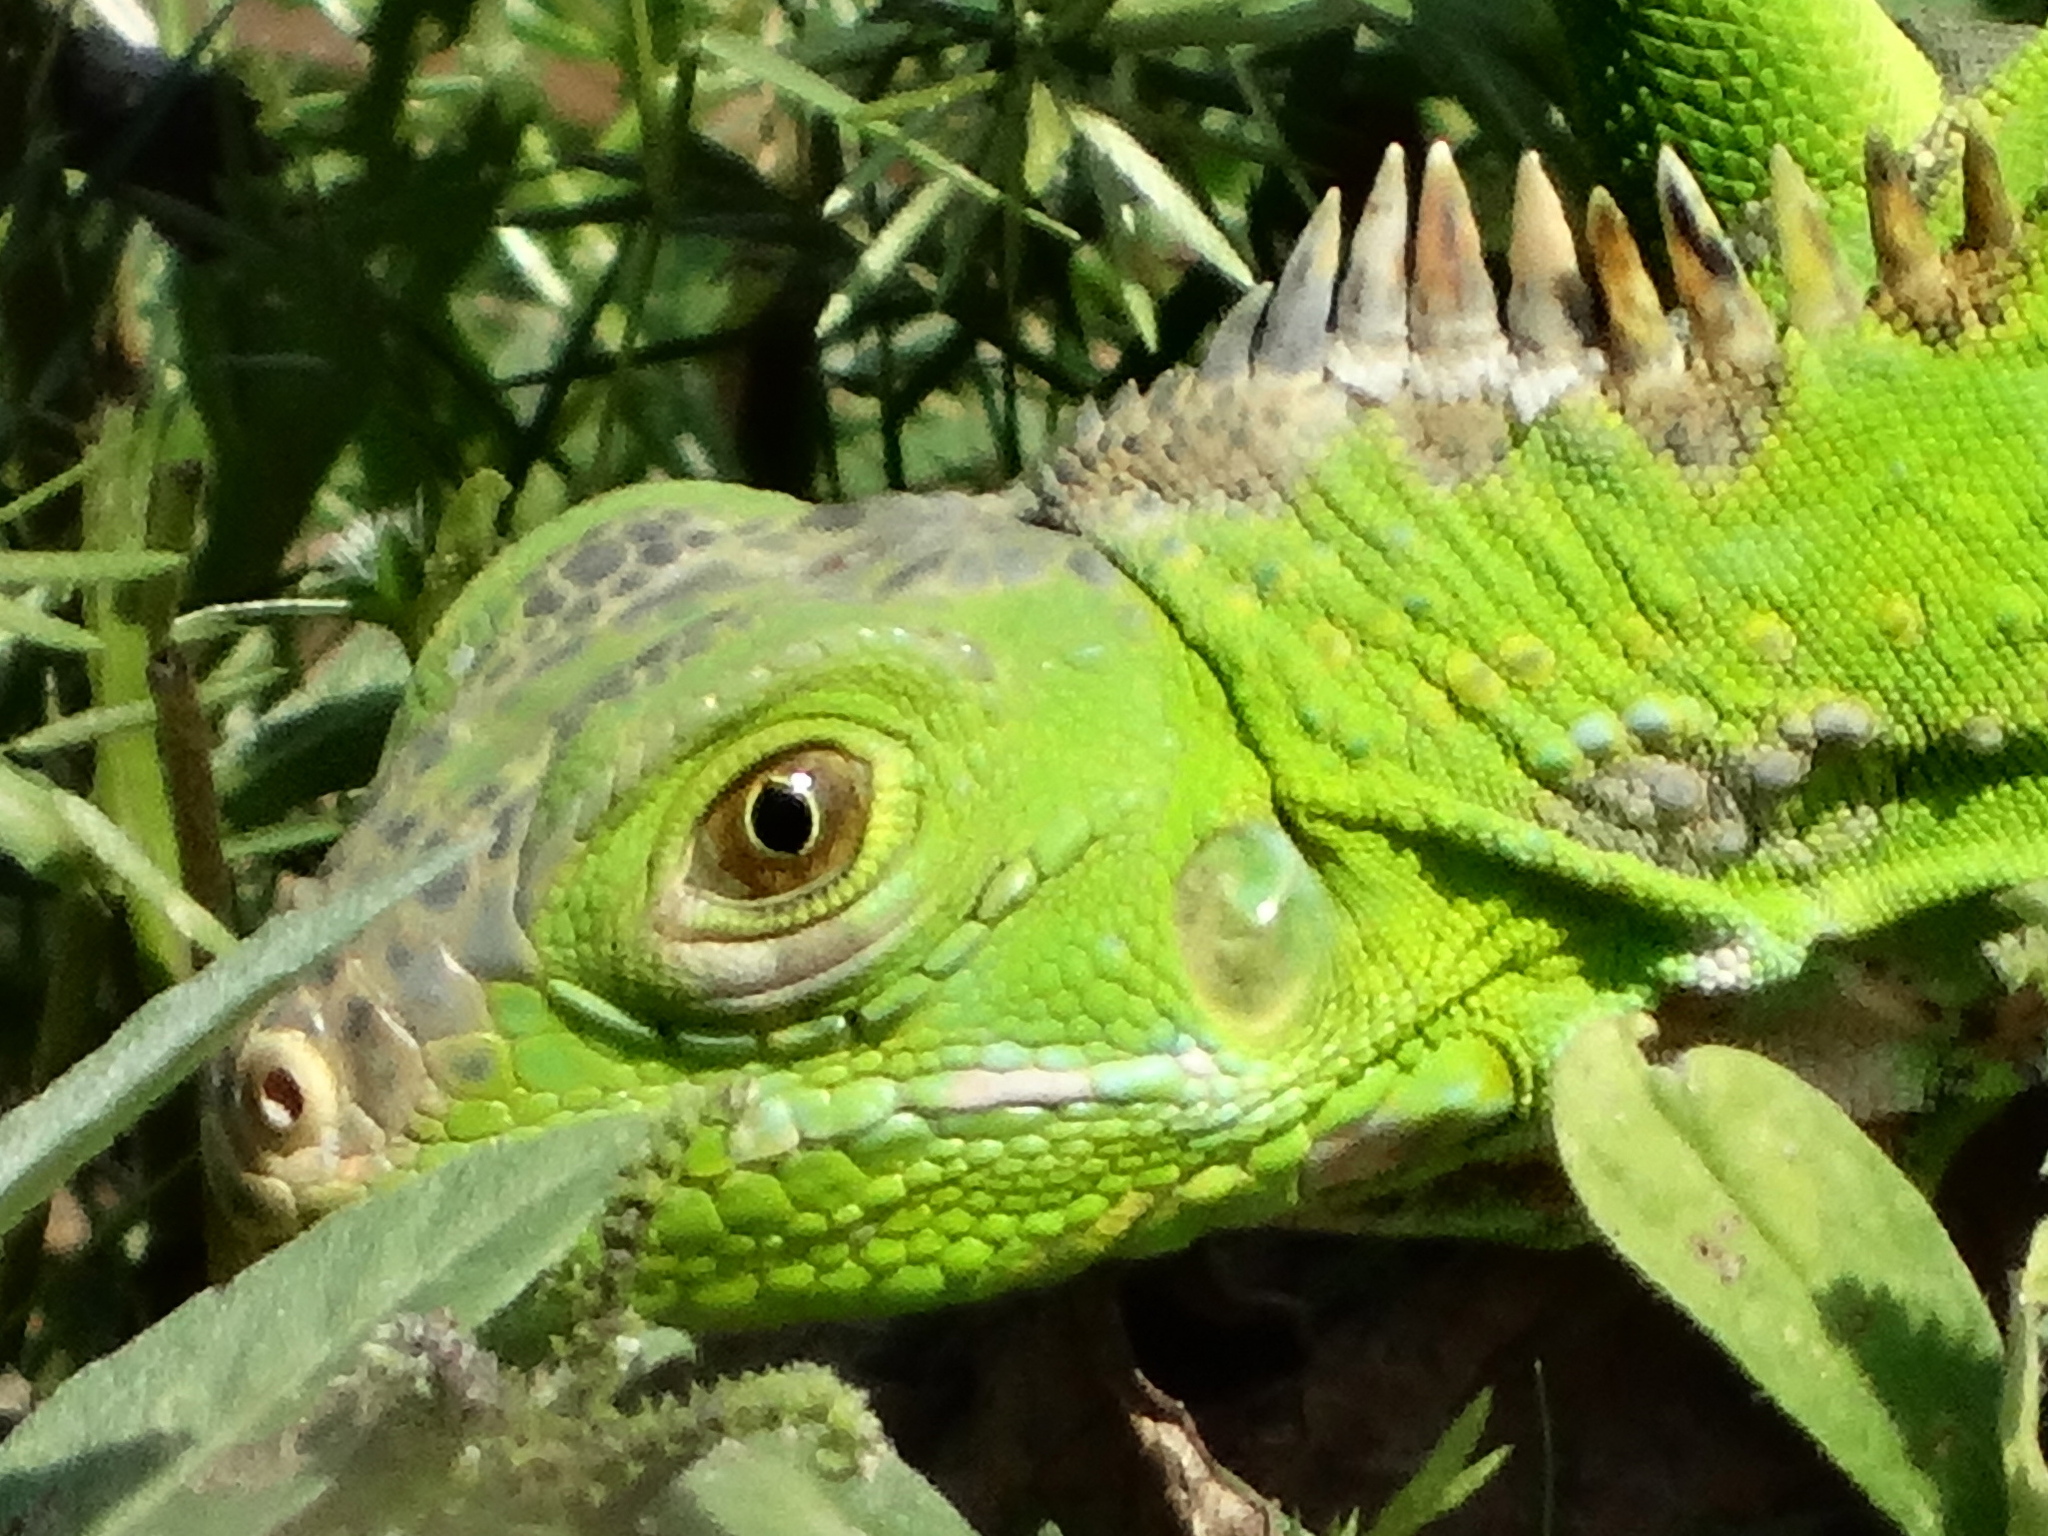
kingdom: Animalia
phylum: Chordata
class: Squamata
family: Iguanidae
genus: Iguana
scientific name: Iguana iguana
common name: Green iguana
